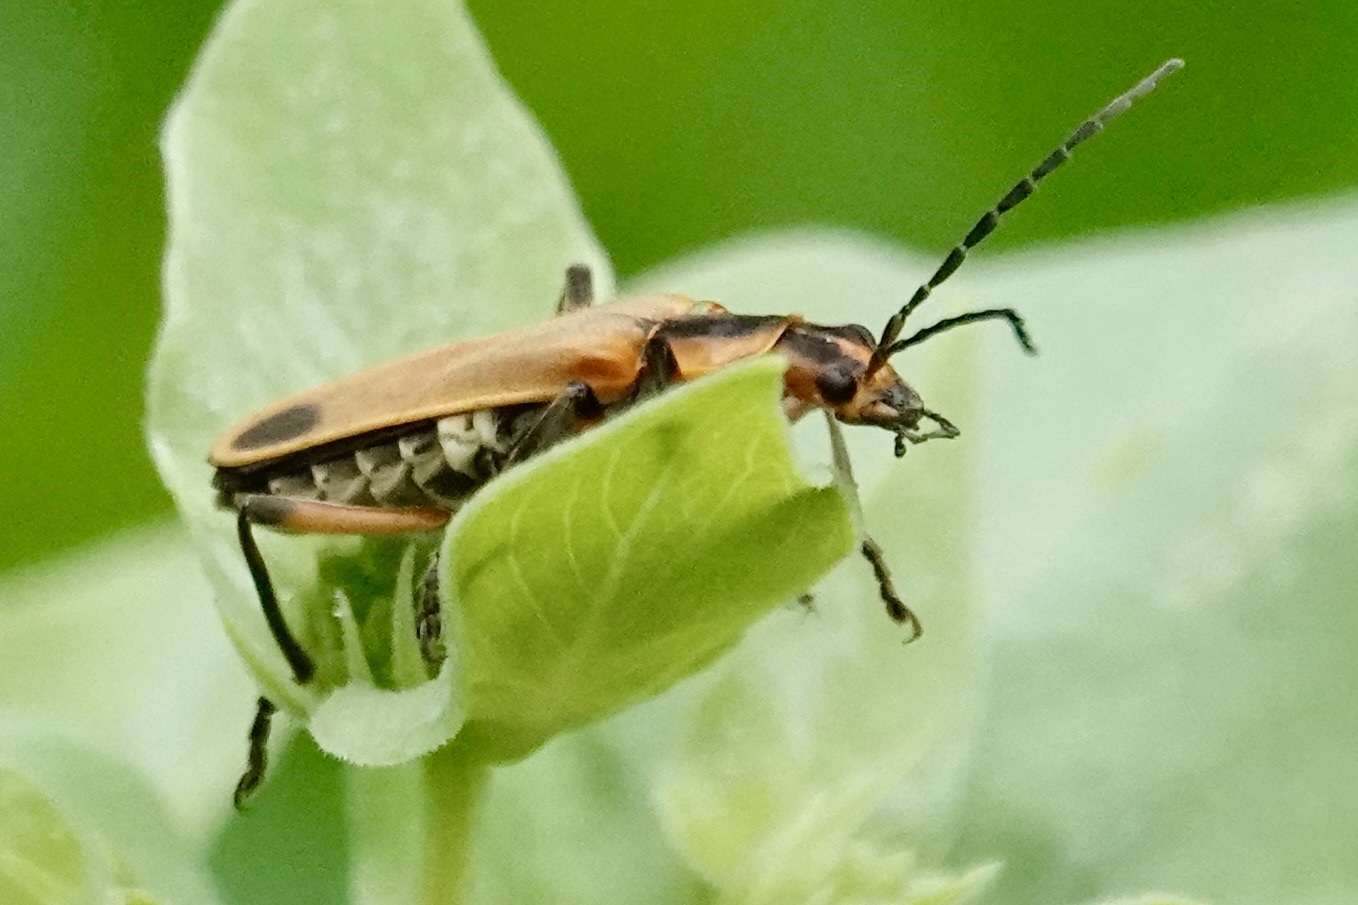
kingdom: Animalia
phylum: Arthropoda
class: Insecta
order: Coleoptera
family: Cantharidae
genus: Chauliognathus
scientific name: Chauliognathus marginatus
